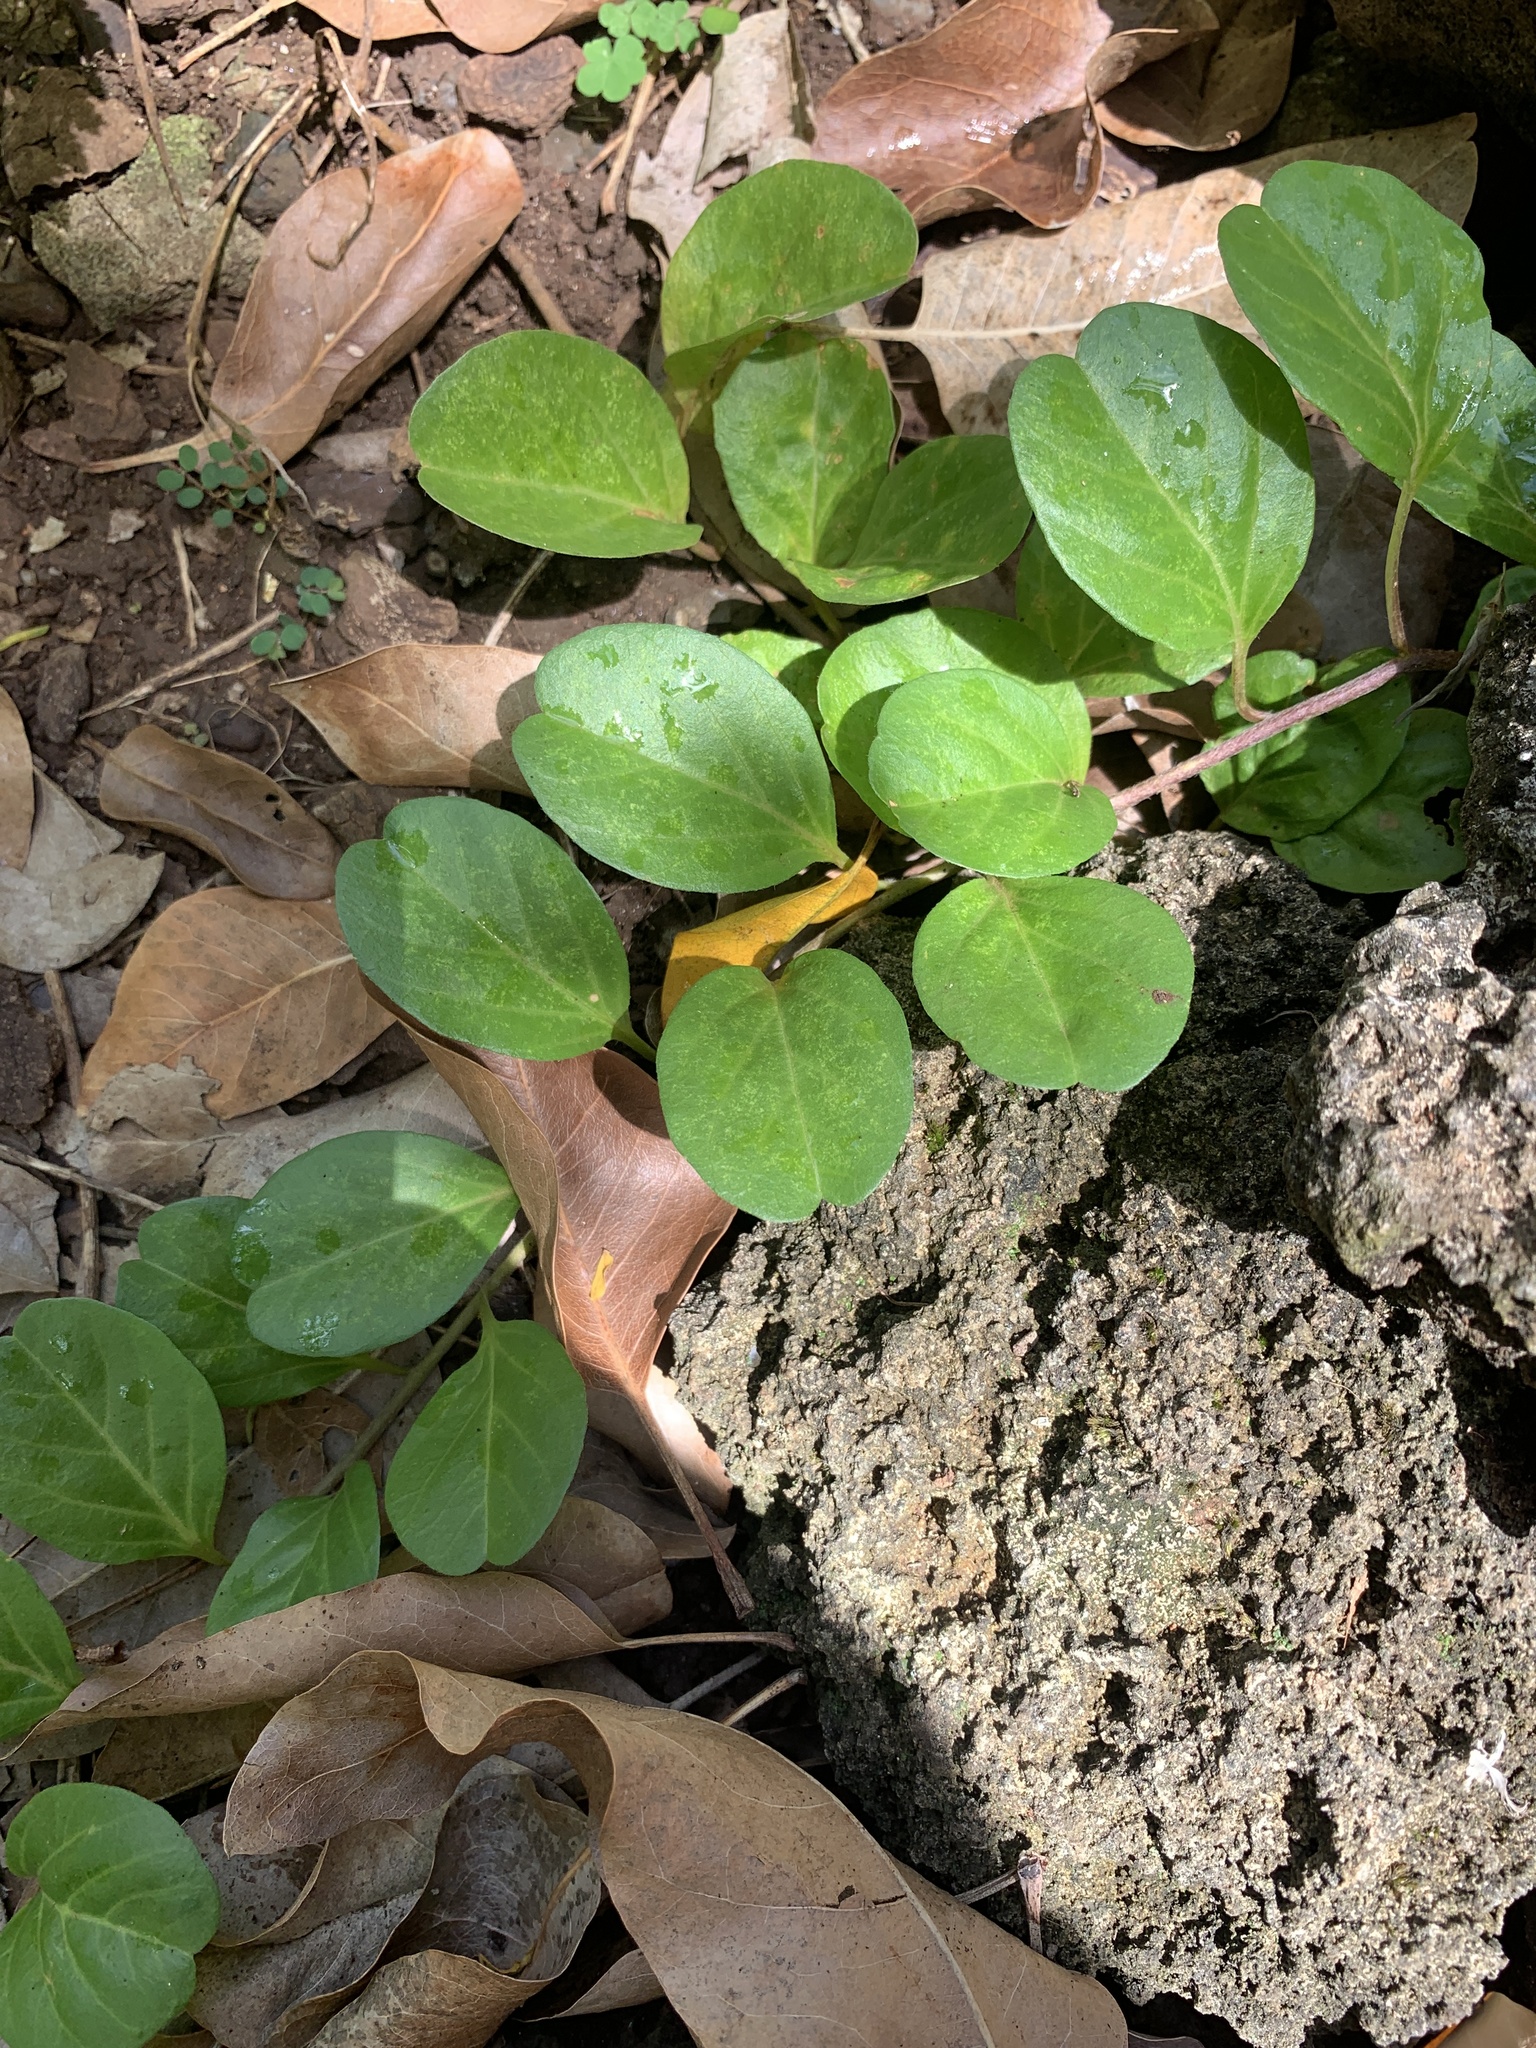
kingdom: Plantae
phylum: Tracheophyta
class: Magnoliopsida
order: Solanales
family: Convolvulaceae
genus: Jacquemontia
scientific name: Jacquemontia sandwicensis
